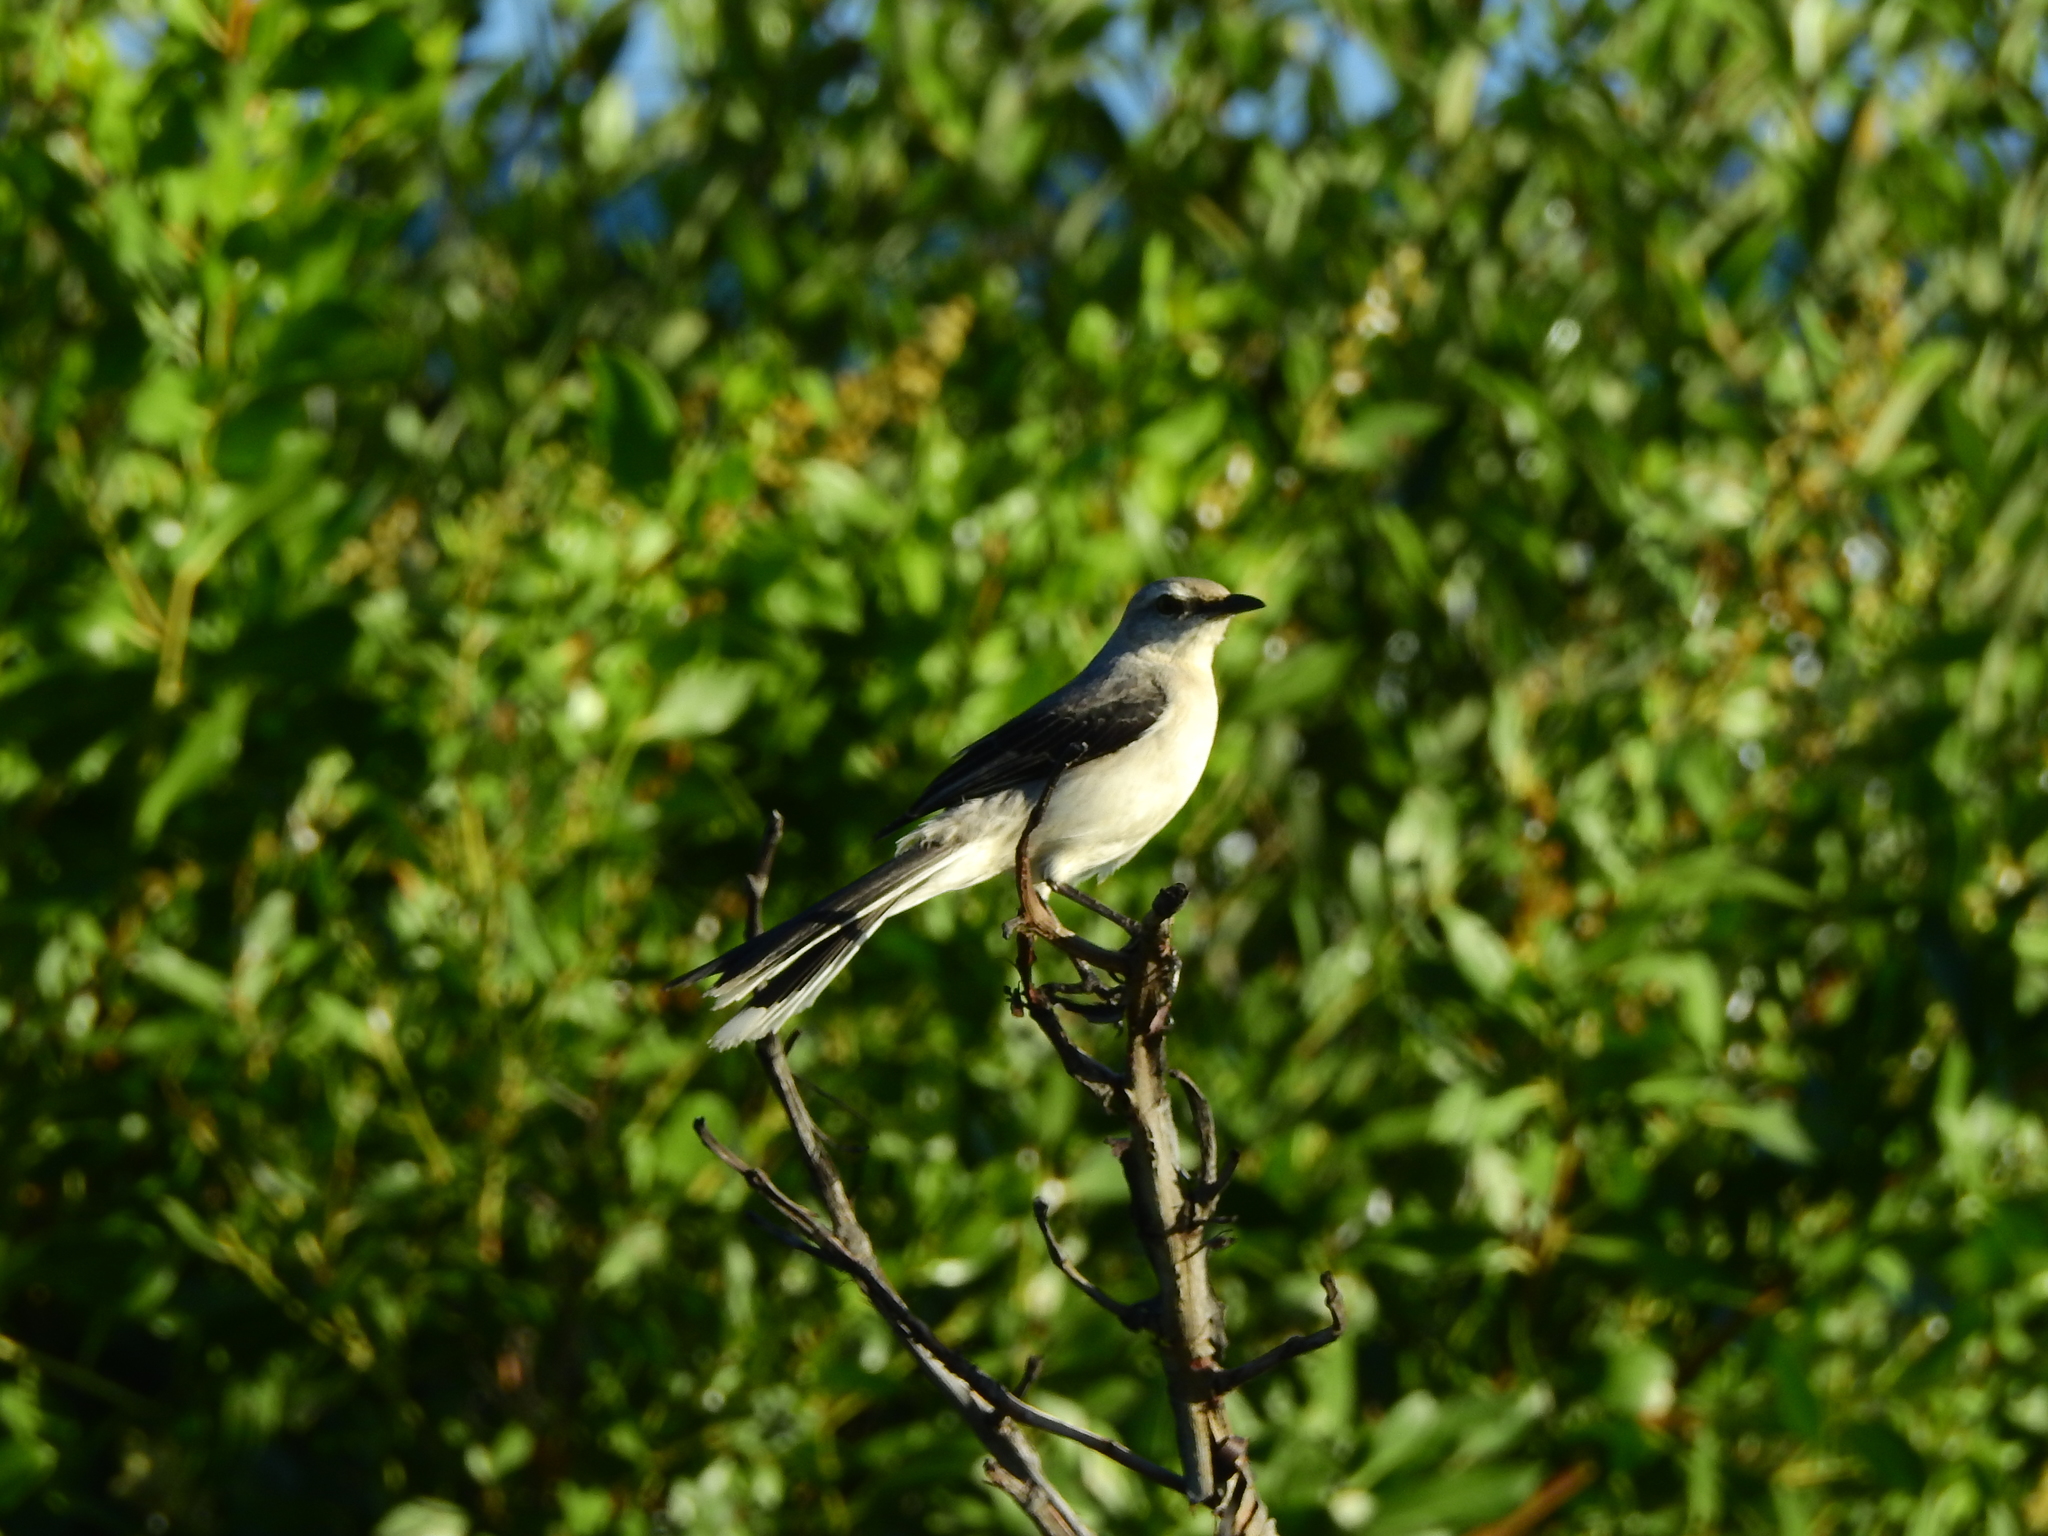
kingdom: Animalia
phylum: Chordata
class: Aves
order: Passeriformes
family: Mimidae
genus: Mimus
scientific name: Mimus gilvus
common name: Tropical mockingbird
